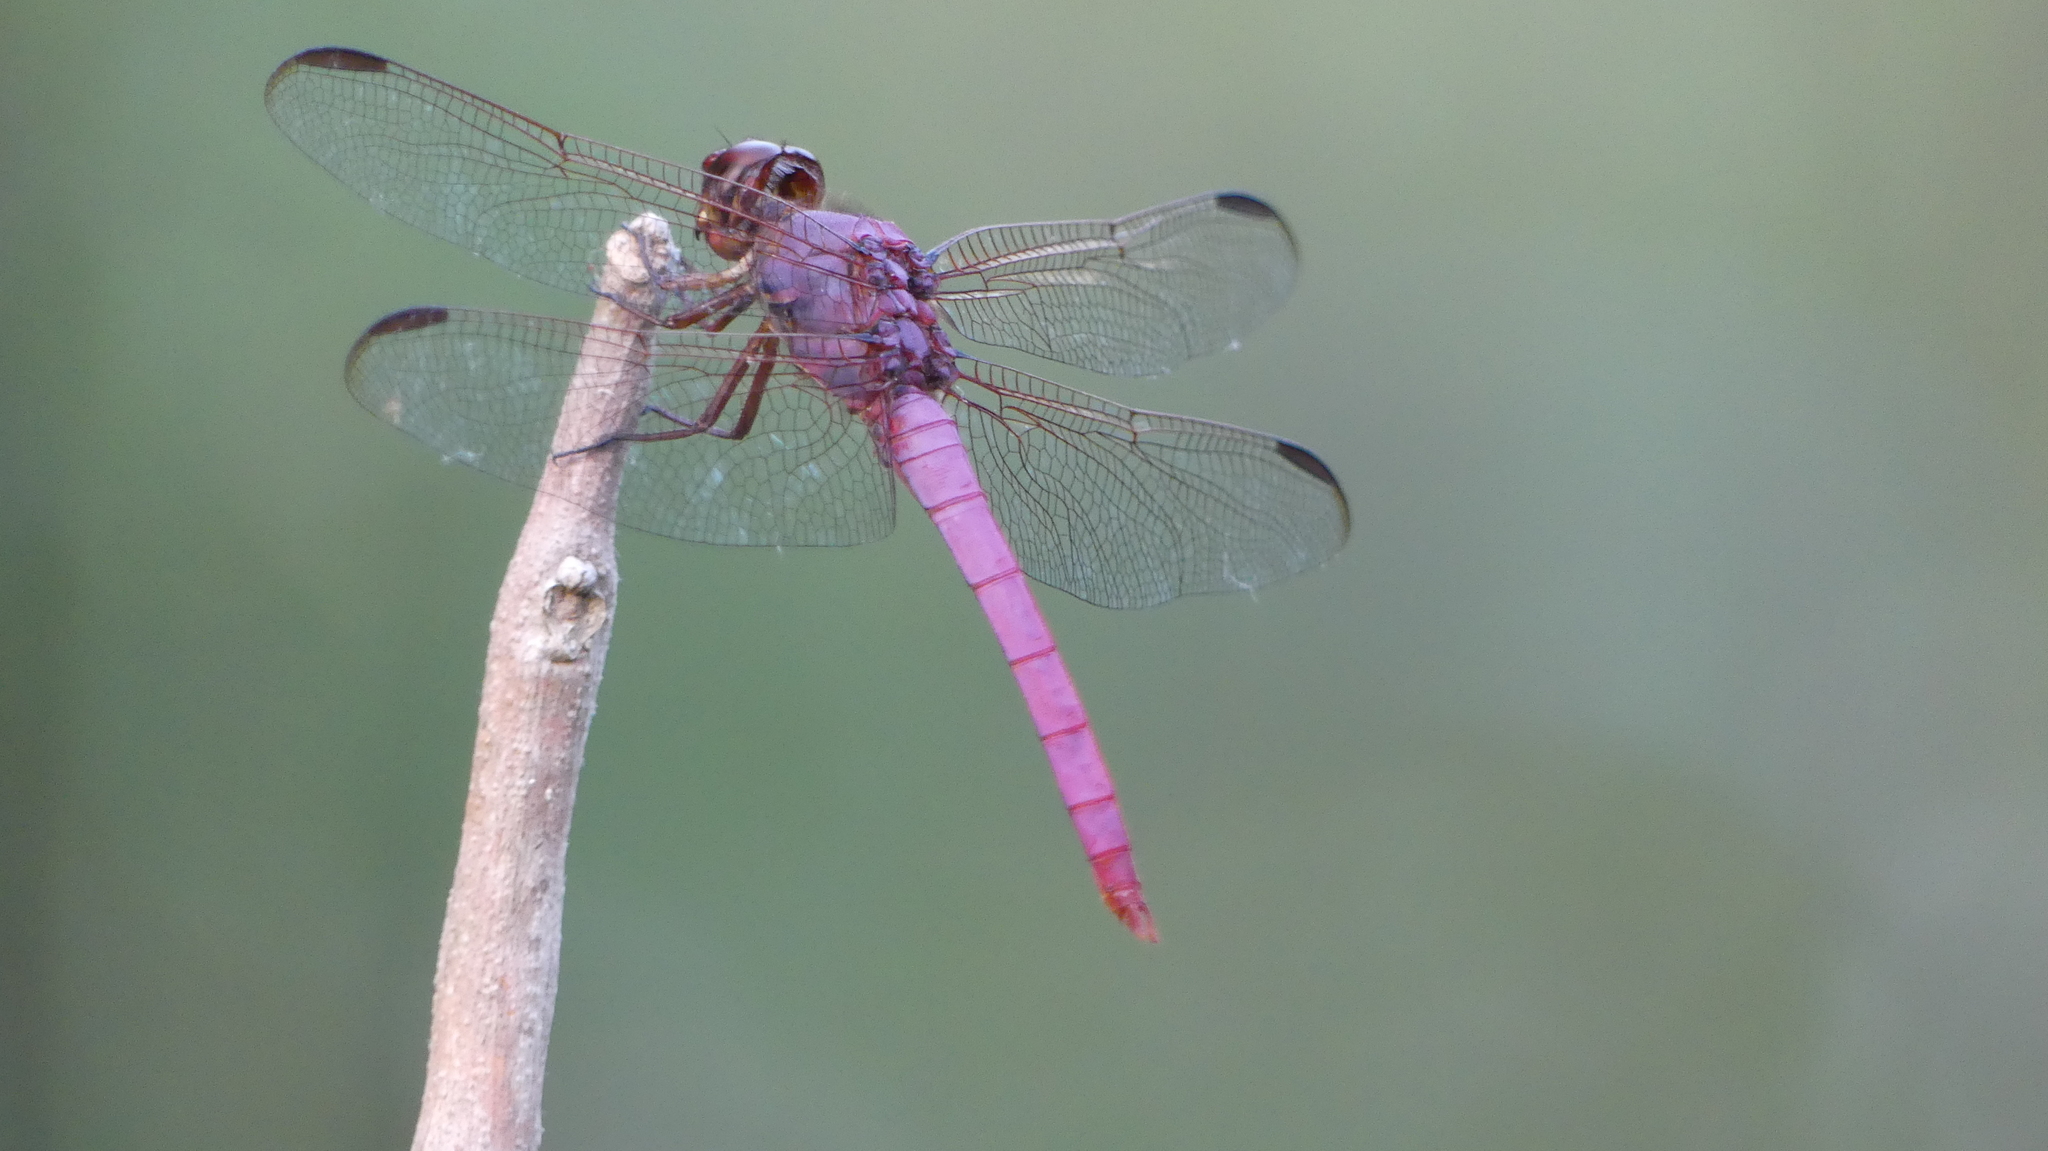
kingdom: Animalia
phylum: Arthropoda
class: Insecta
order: Odonata
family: Libellulidae
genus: Orthemis
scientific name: Orthemis ferruginea
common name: Roseate skimmer
